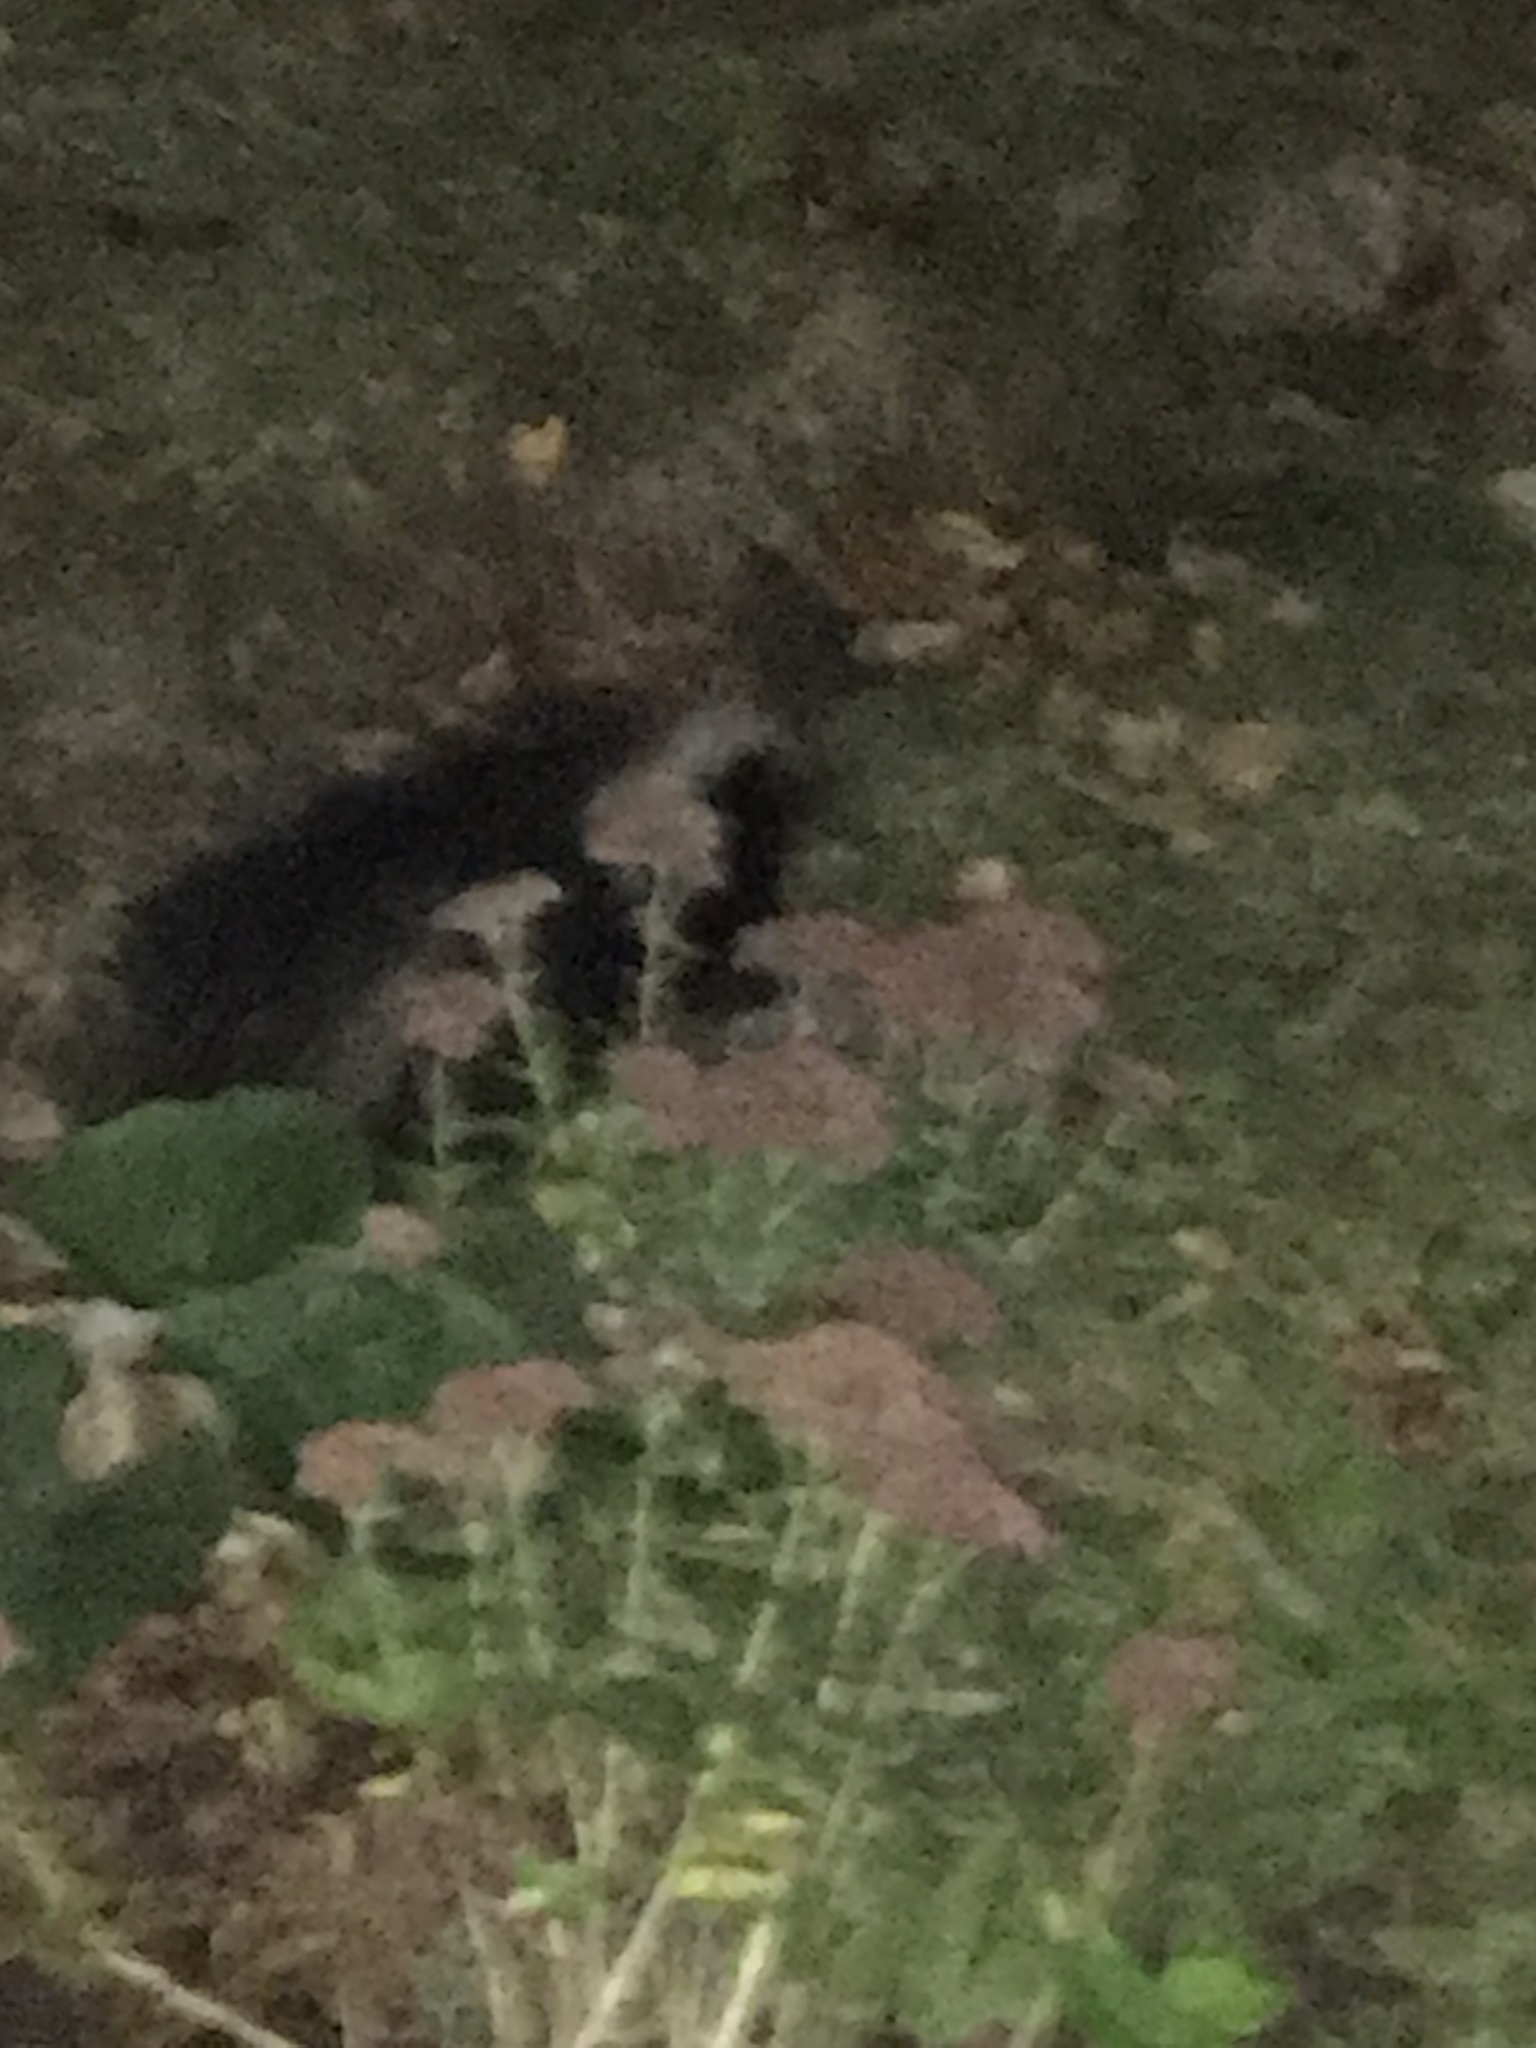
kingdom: Animalia
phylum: Chordata
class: Mammalia
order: Carnivora
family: Mephitidae
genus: Mephitis
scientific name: Mephitis mephitis
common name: Striped skunk
